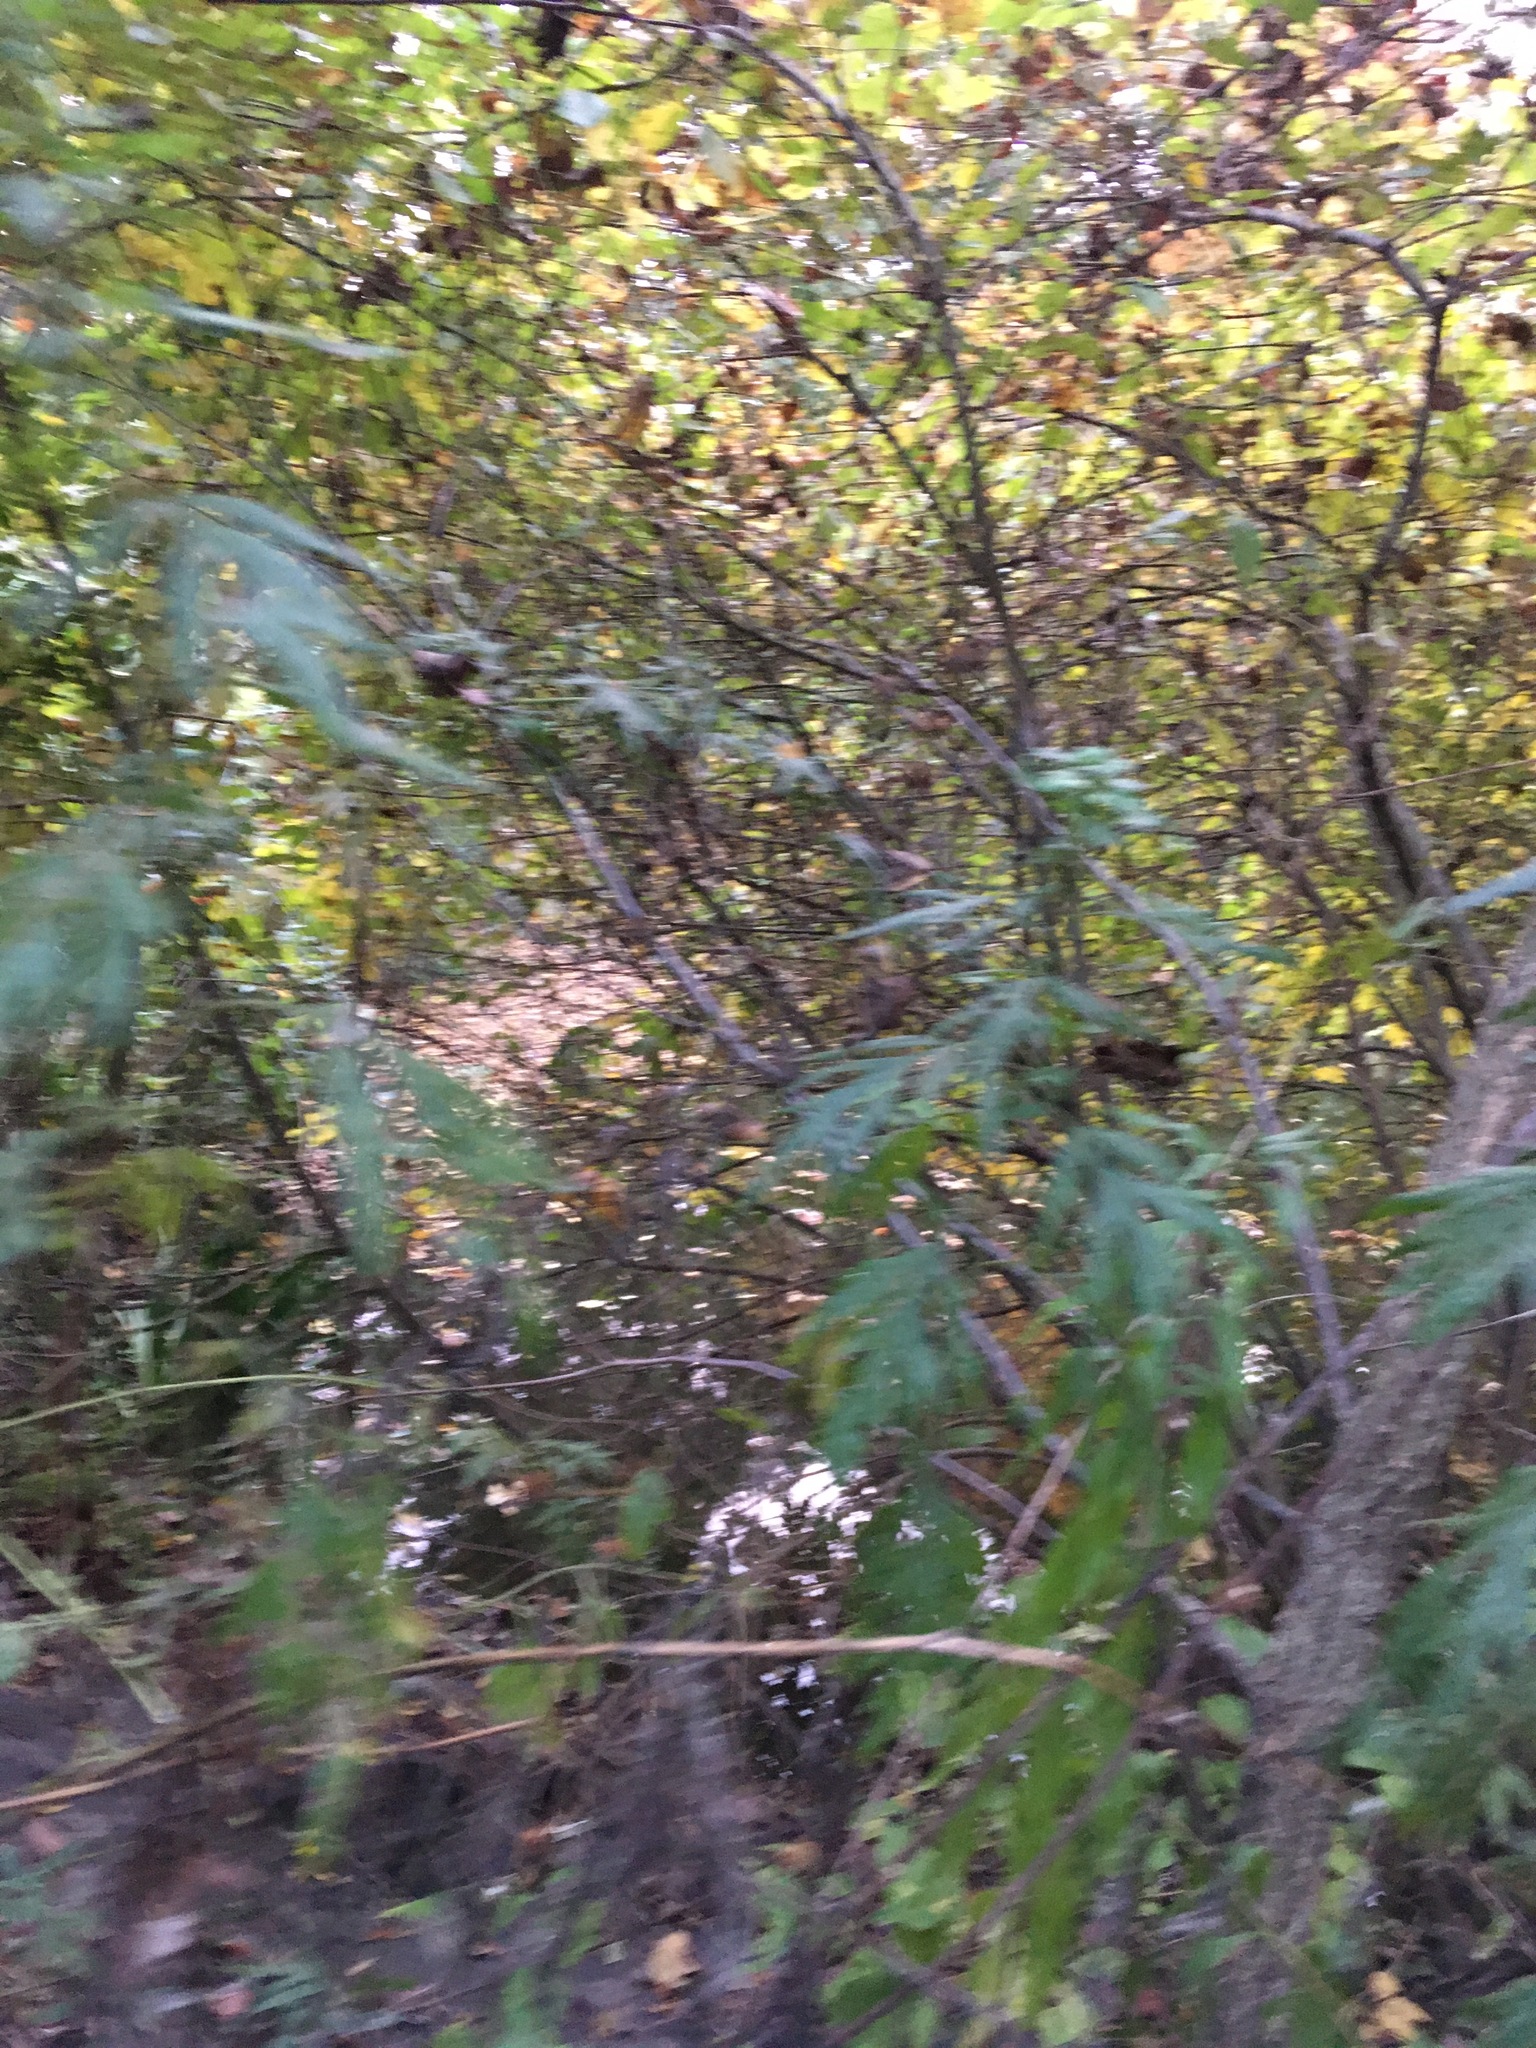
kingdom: Plantae
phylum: Tracheophyta
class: Magnoliopsida
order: Asterales
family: Asteraceae
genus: Artemisia
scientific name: Artemisia vulgaris
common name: Mugwort
